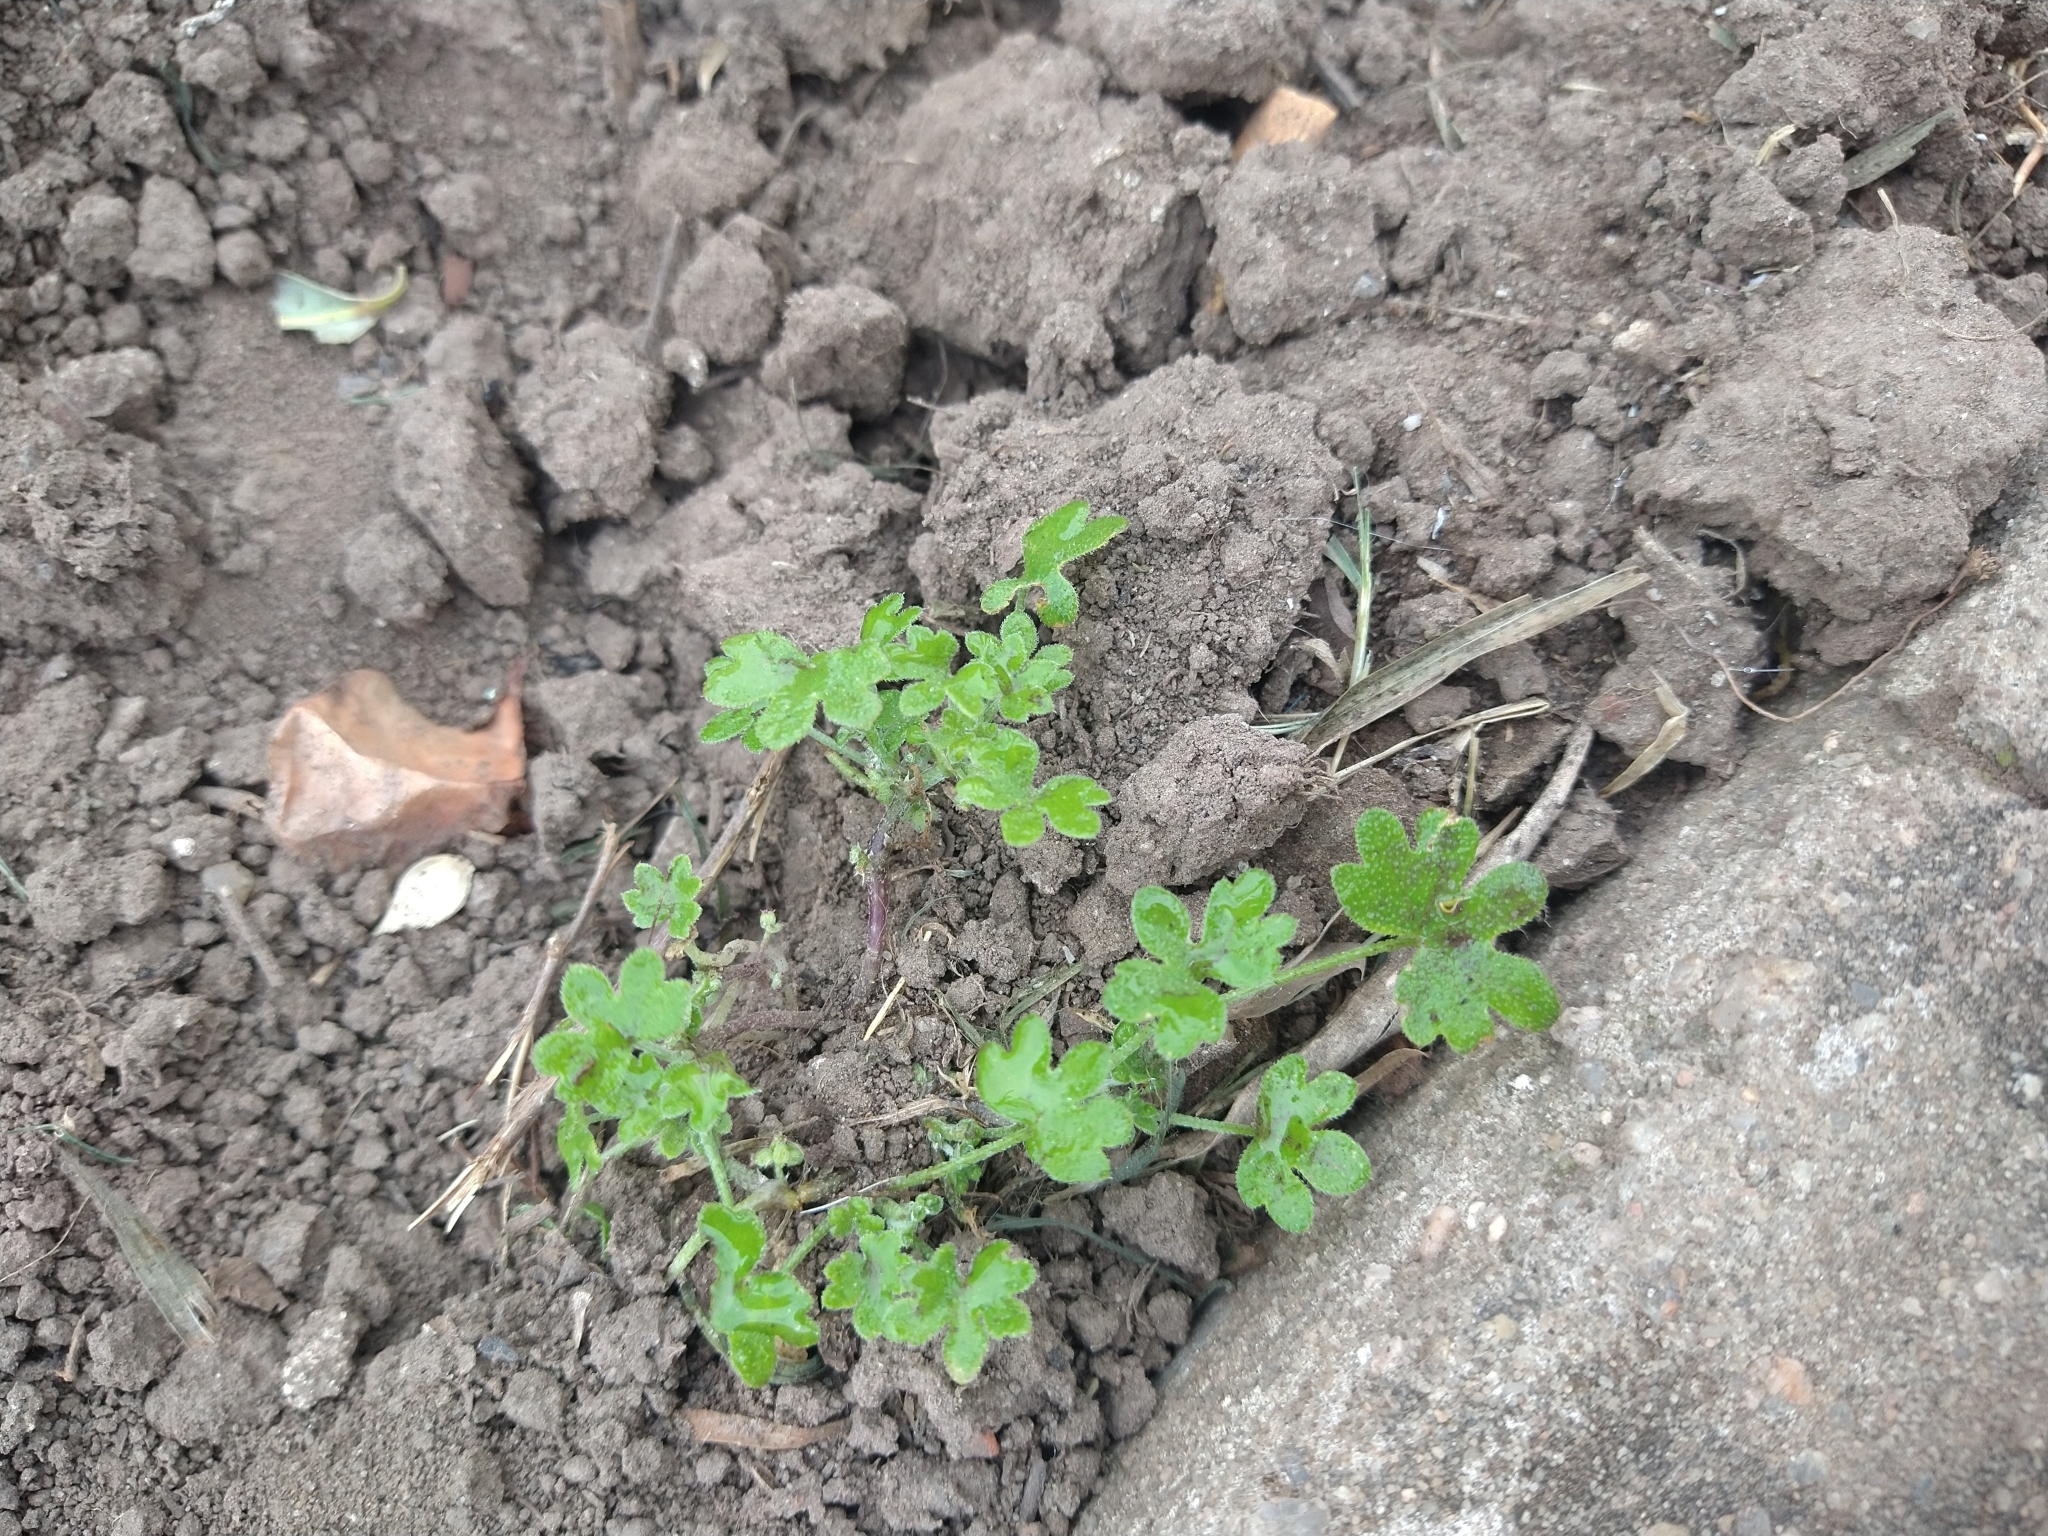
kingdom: Plantae
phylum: Tracheophyta
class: Magnoliopsida
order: Apiales
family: Apiaceae
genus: Bowlesia
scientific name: Bowlesia incana
